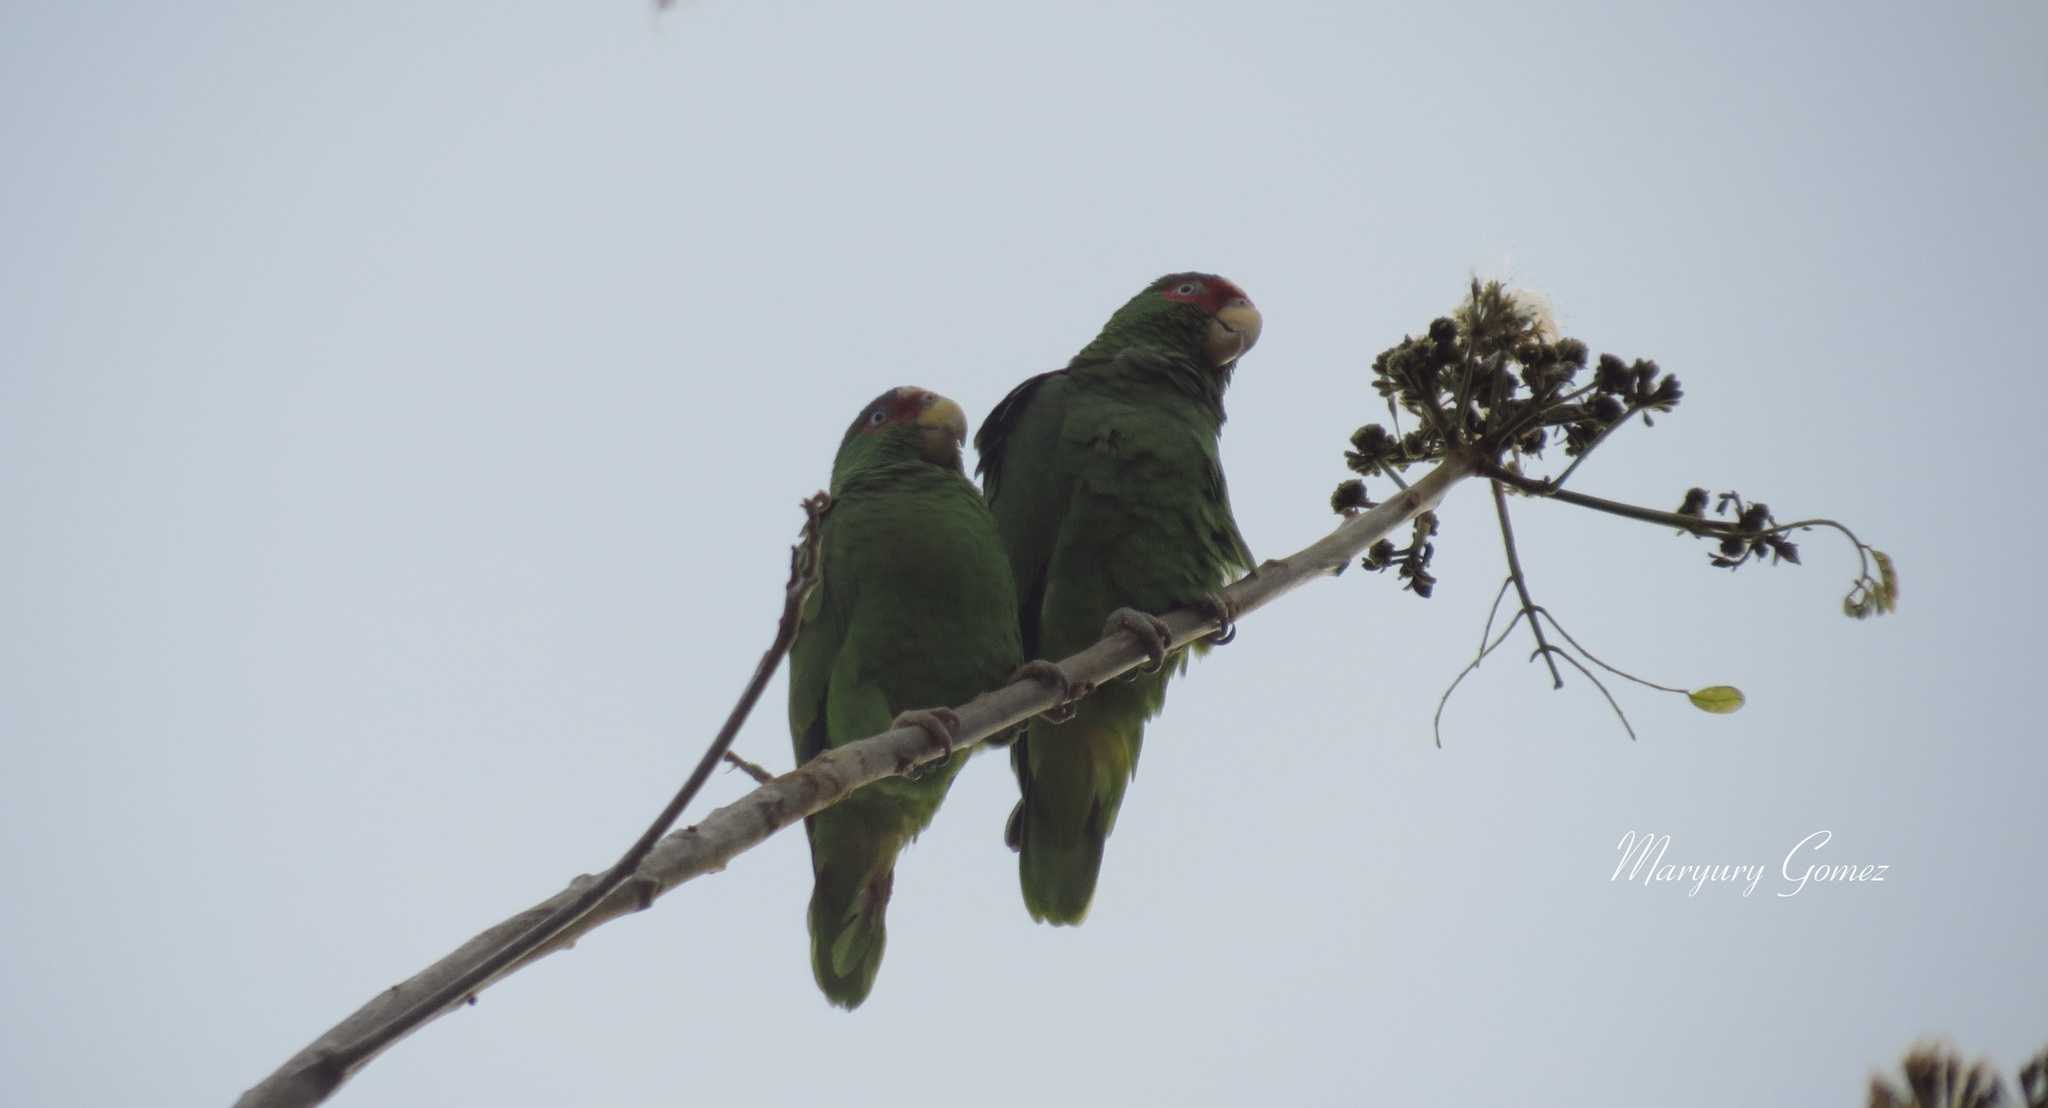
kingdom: Animalia
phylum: Chordata
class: Aves
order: Psittaciformes
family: Psittacidae
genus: Amazona
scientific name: Amazona albifrons
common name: White-fronted amazon
